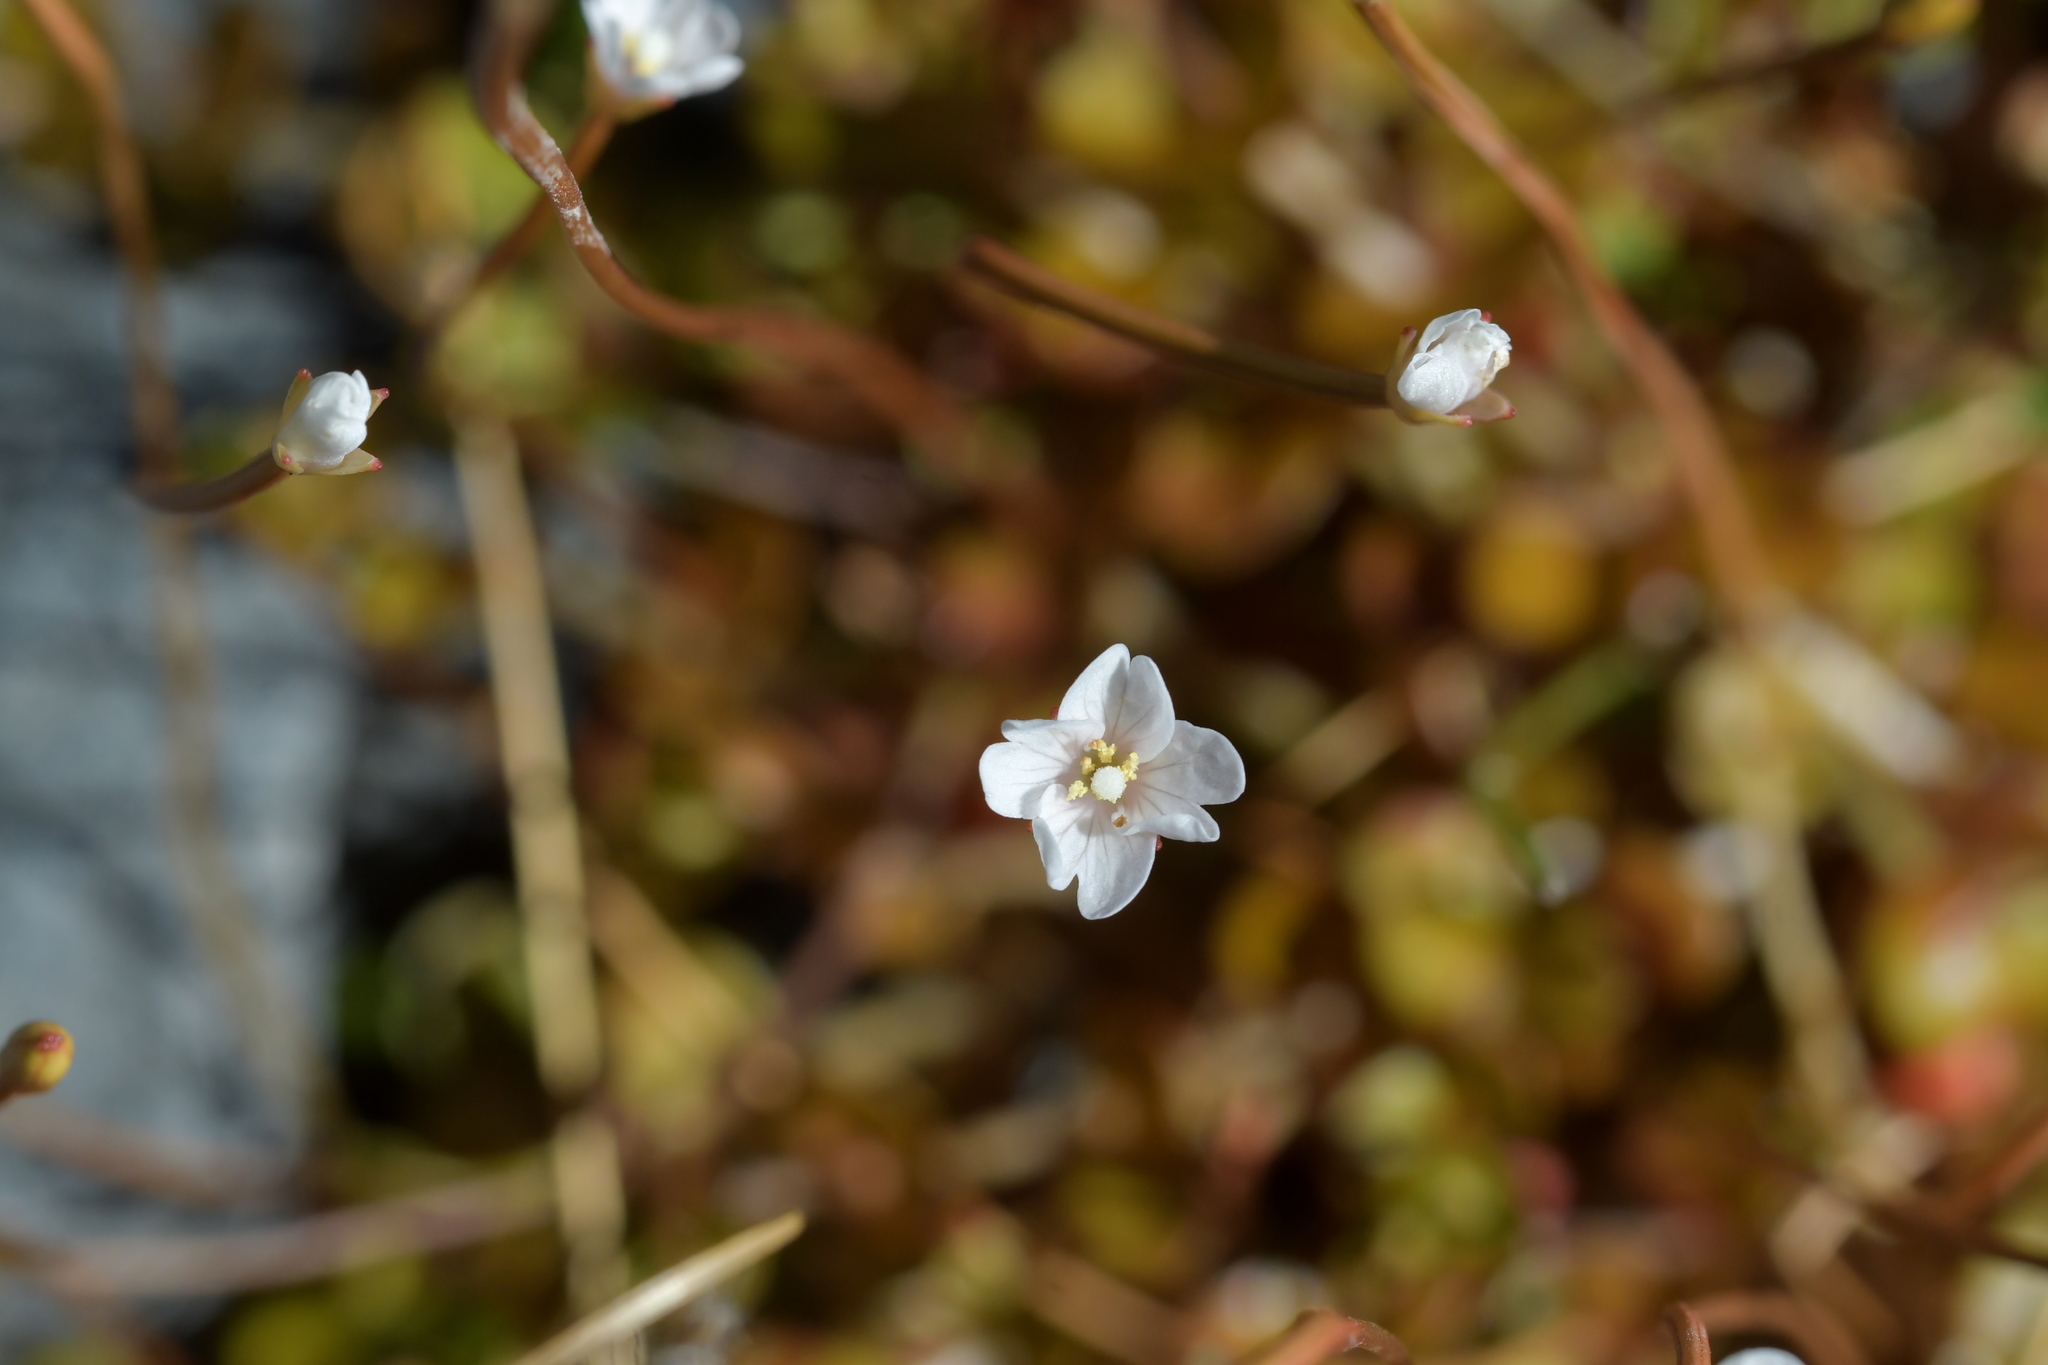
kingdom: Plantae
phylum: Tracheophyta
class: Magnoliopsida
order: Myrtales
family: Onagraceae
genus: Epilobium
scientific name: Epilobium brunnescens
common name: New zealand willowherb
